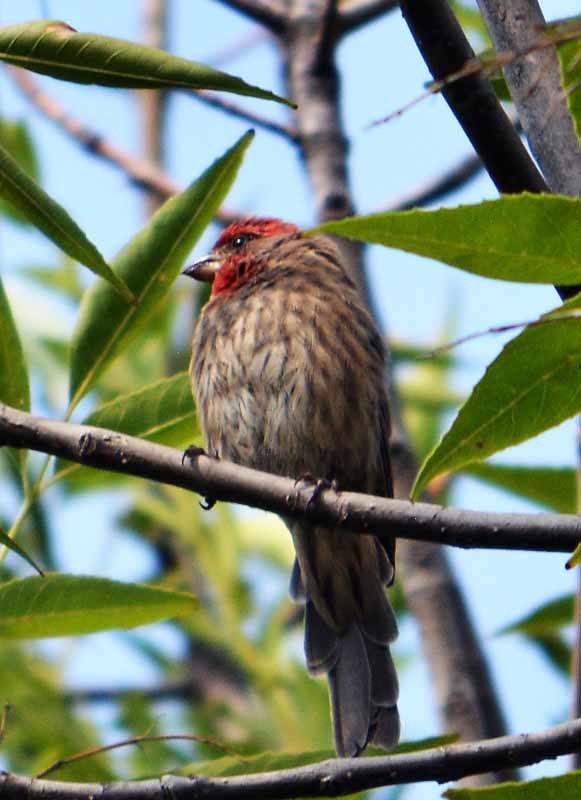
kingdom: Animalia
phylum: Chordata
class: Aves
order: Passeriformes
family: Fringillidae
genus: Haemorhous
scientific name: Haemorhous mexicanus
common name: House finch
